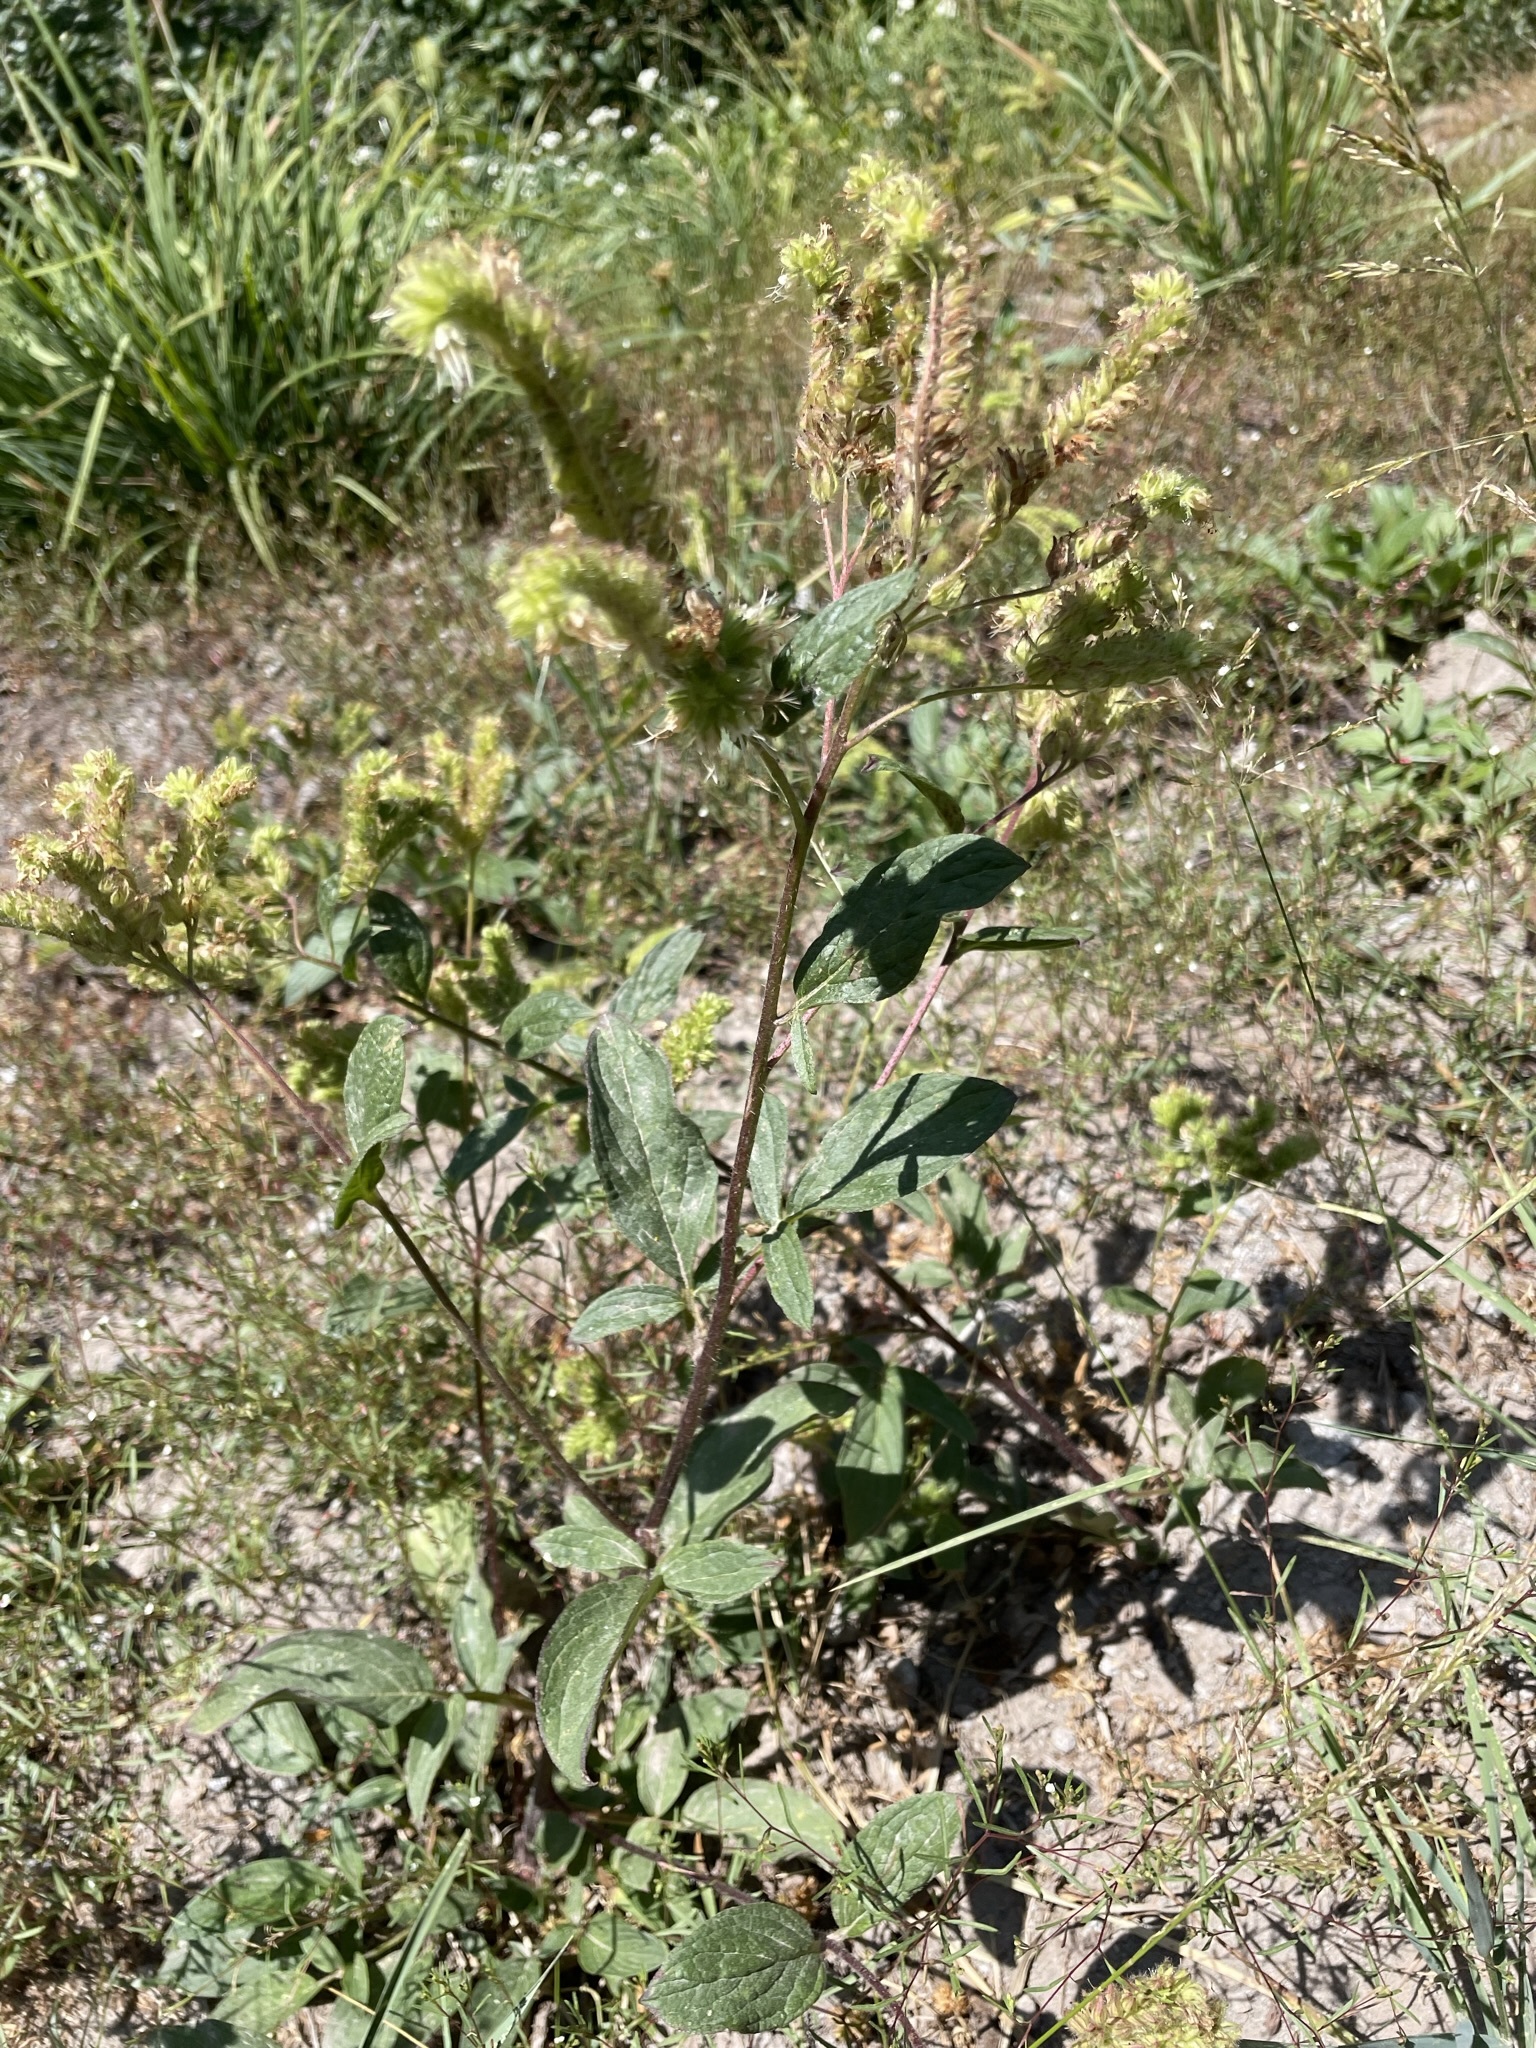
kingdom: Plantae
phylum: Tracheophyta
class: Magnoliopsida
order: Boraginales
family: Hydrophyllaceae
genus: Phacelia
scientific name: Phacelia nemoralis
